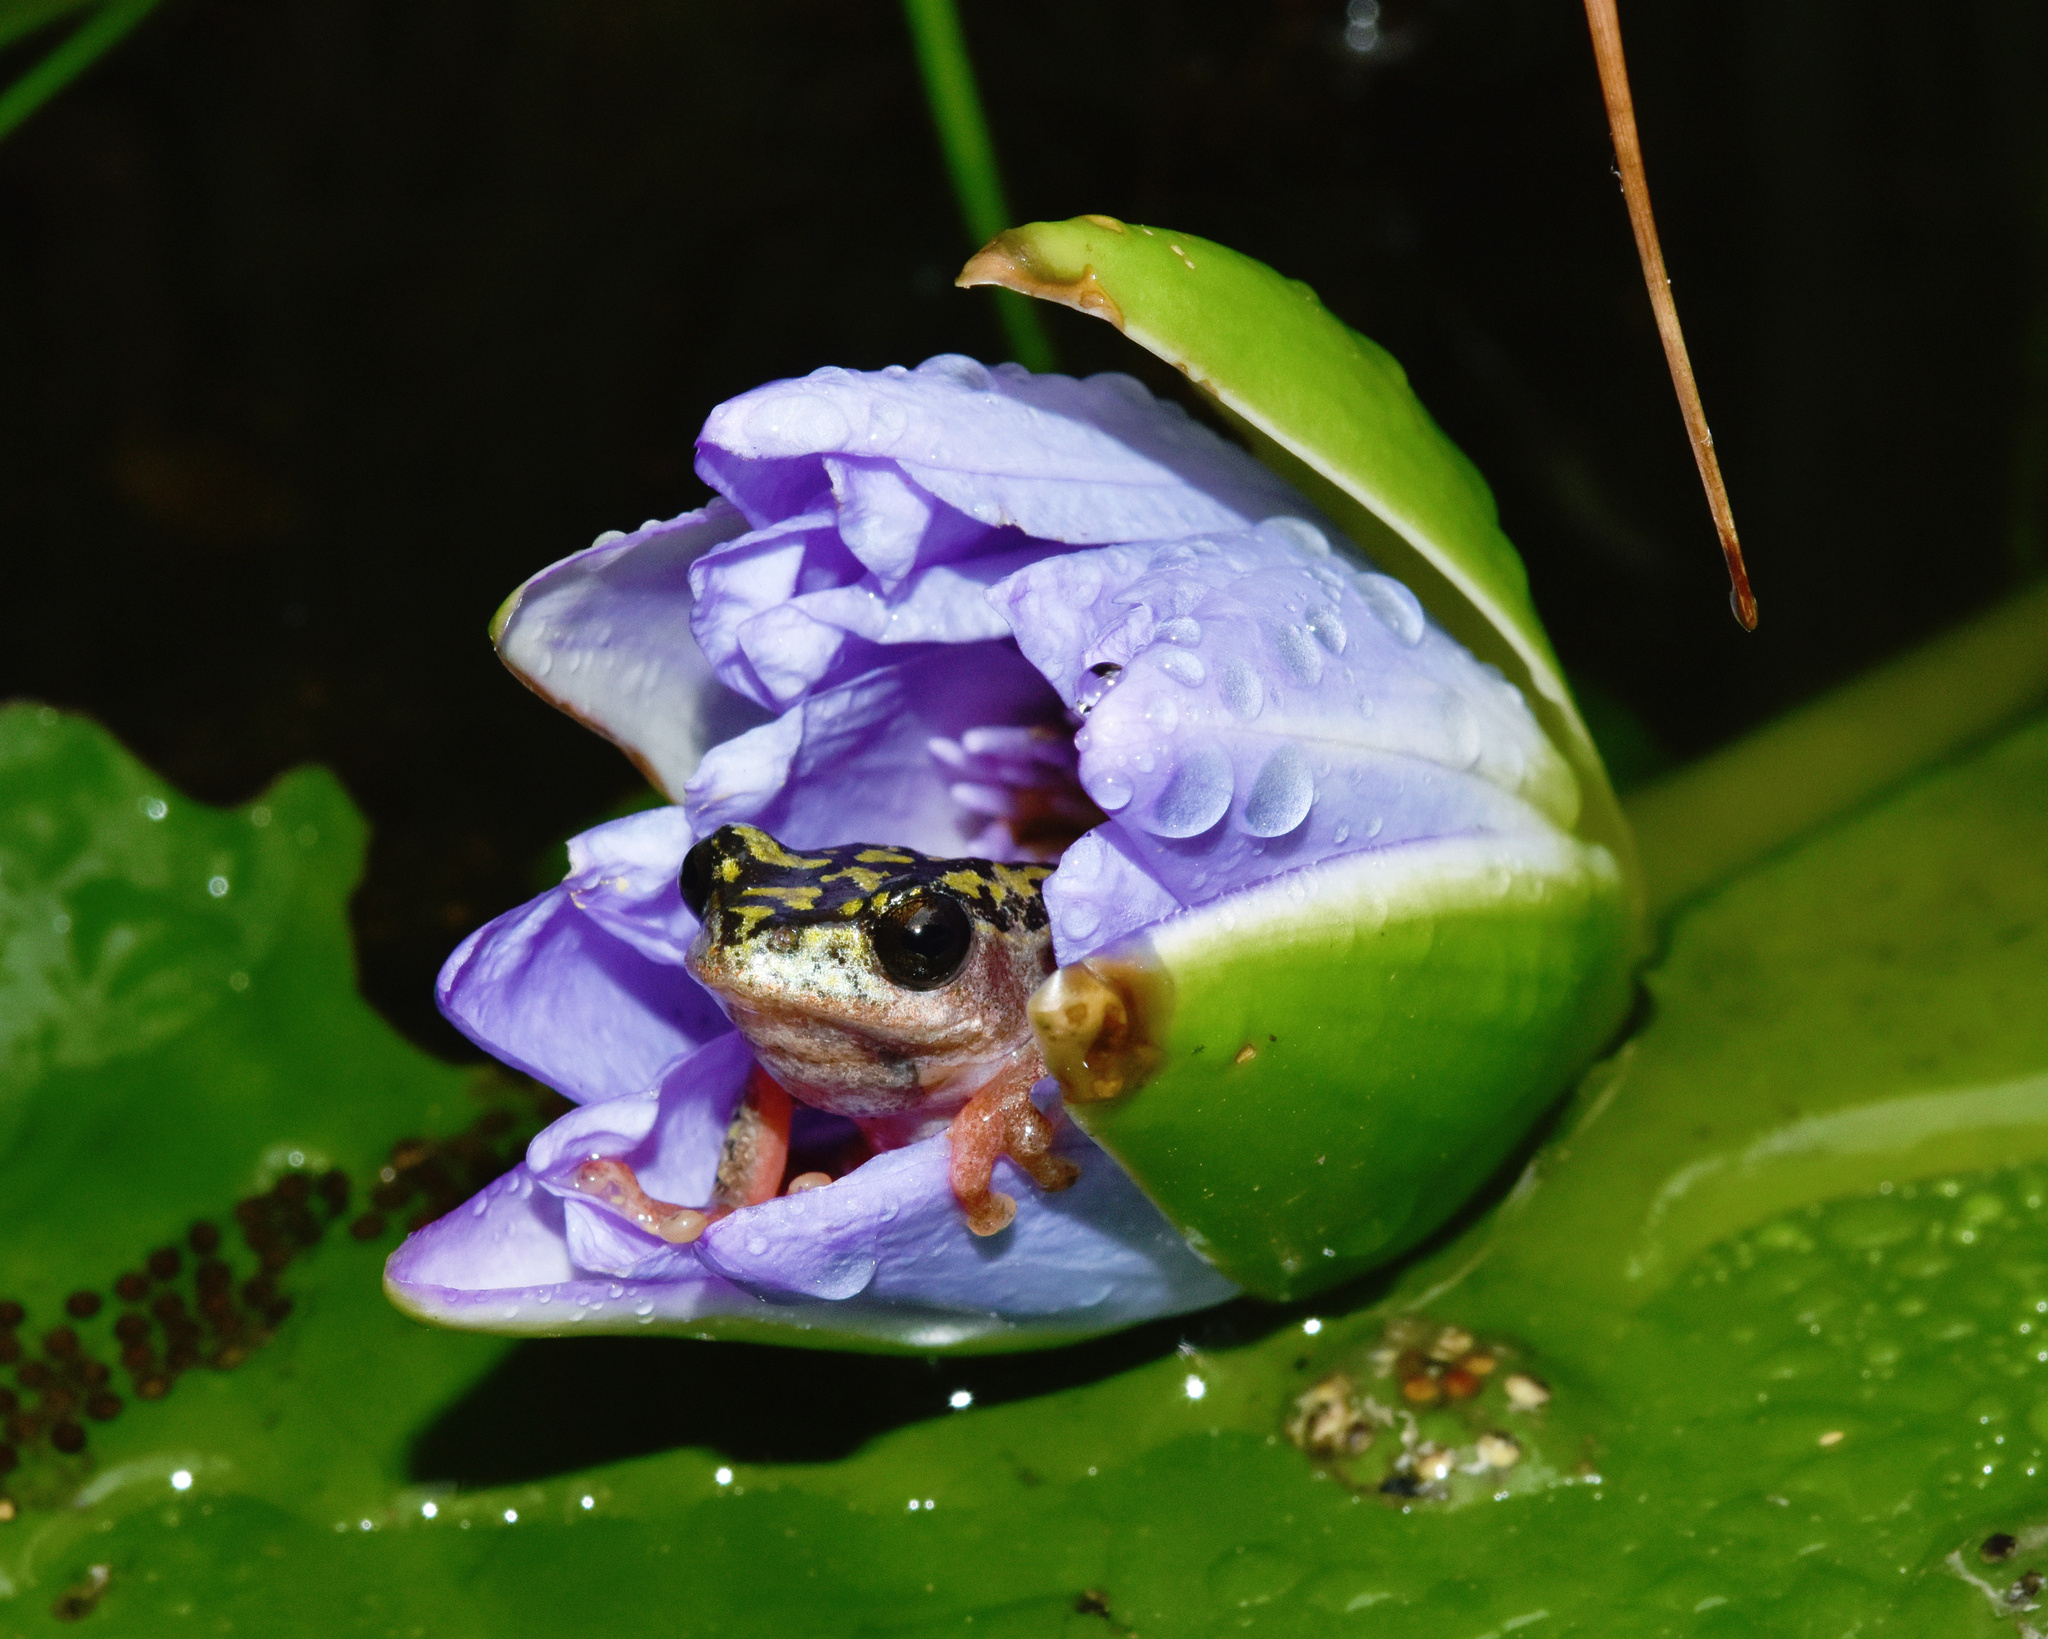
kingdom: Animalia
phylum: Chordata
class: Amphibia
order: Anura
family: Hyperoliidae
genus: Hyperolius
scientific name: Hyperolius marmoratus
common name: Painted reed frog
